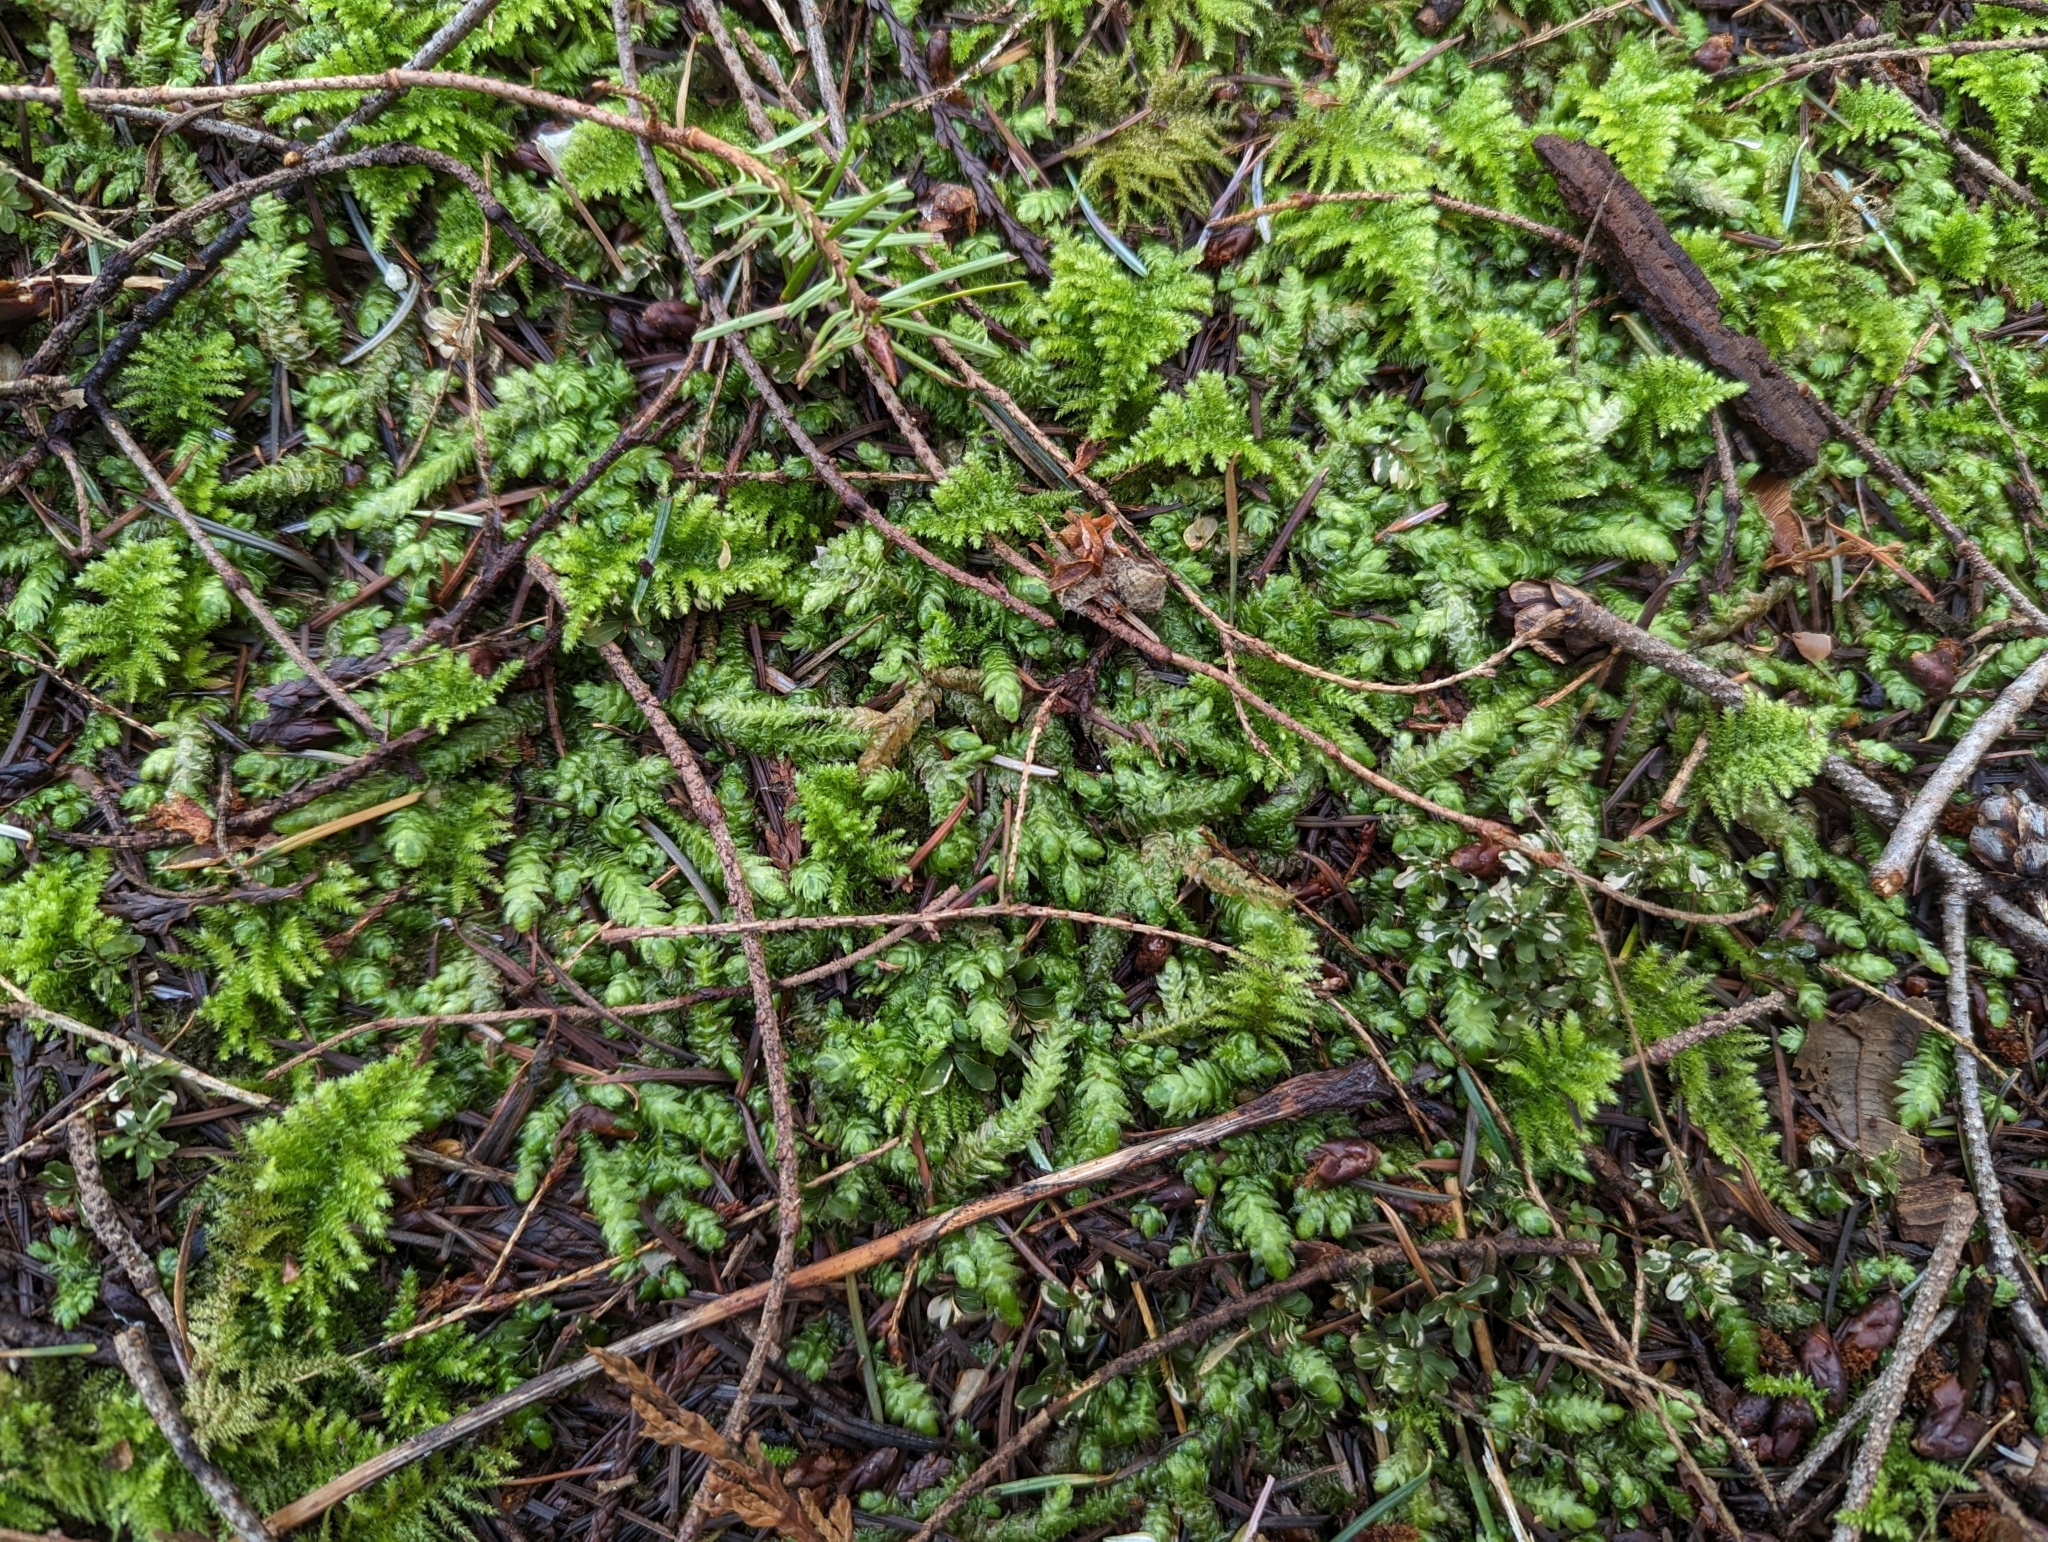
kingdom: Plantae
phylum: Bryophyta
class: Bryopsida
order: Hypnales
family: Plagiotheciaceae
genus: Plagiothecium
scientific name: Plagiothecium undulatum
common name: Waved silk-moss
